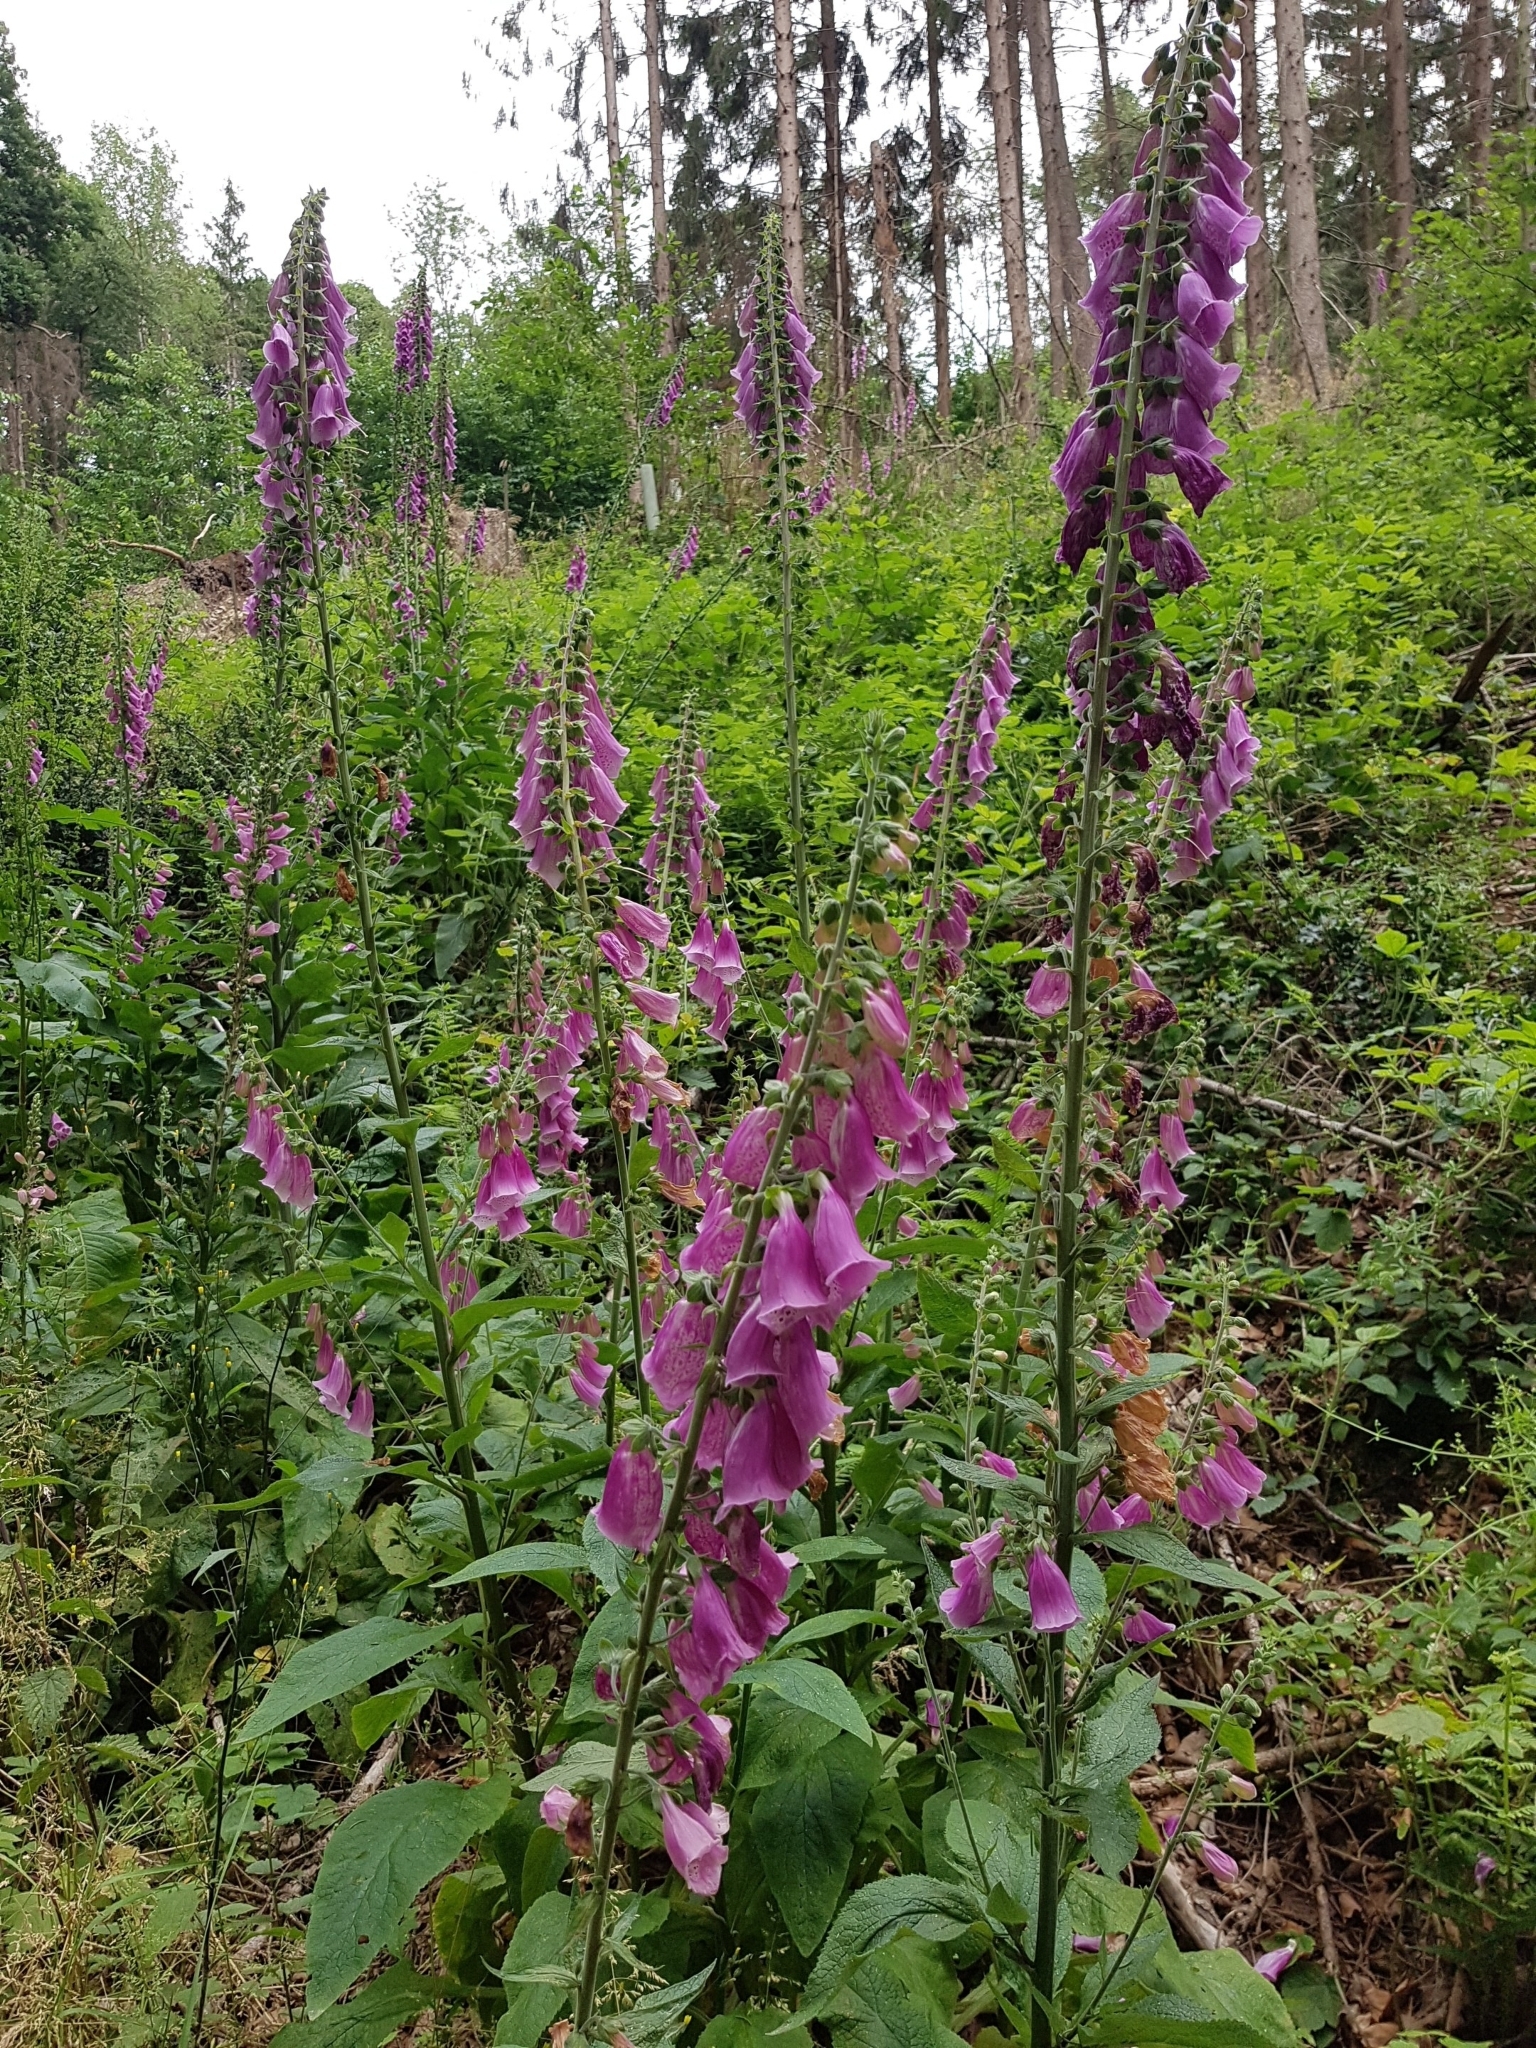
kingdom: Plantae
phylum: Tracheophyta
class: Magnoliopsida
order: Lamiales
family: Plantaginaceae
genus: Digitalis
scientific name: Digitalis purpurea
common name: Foxglove
